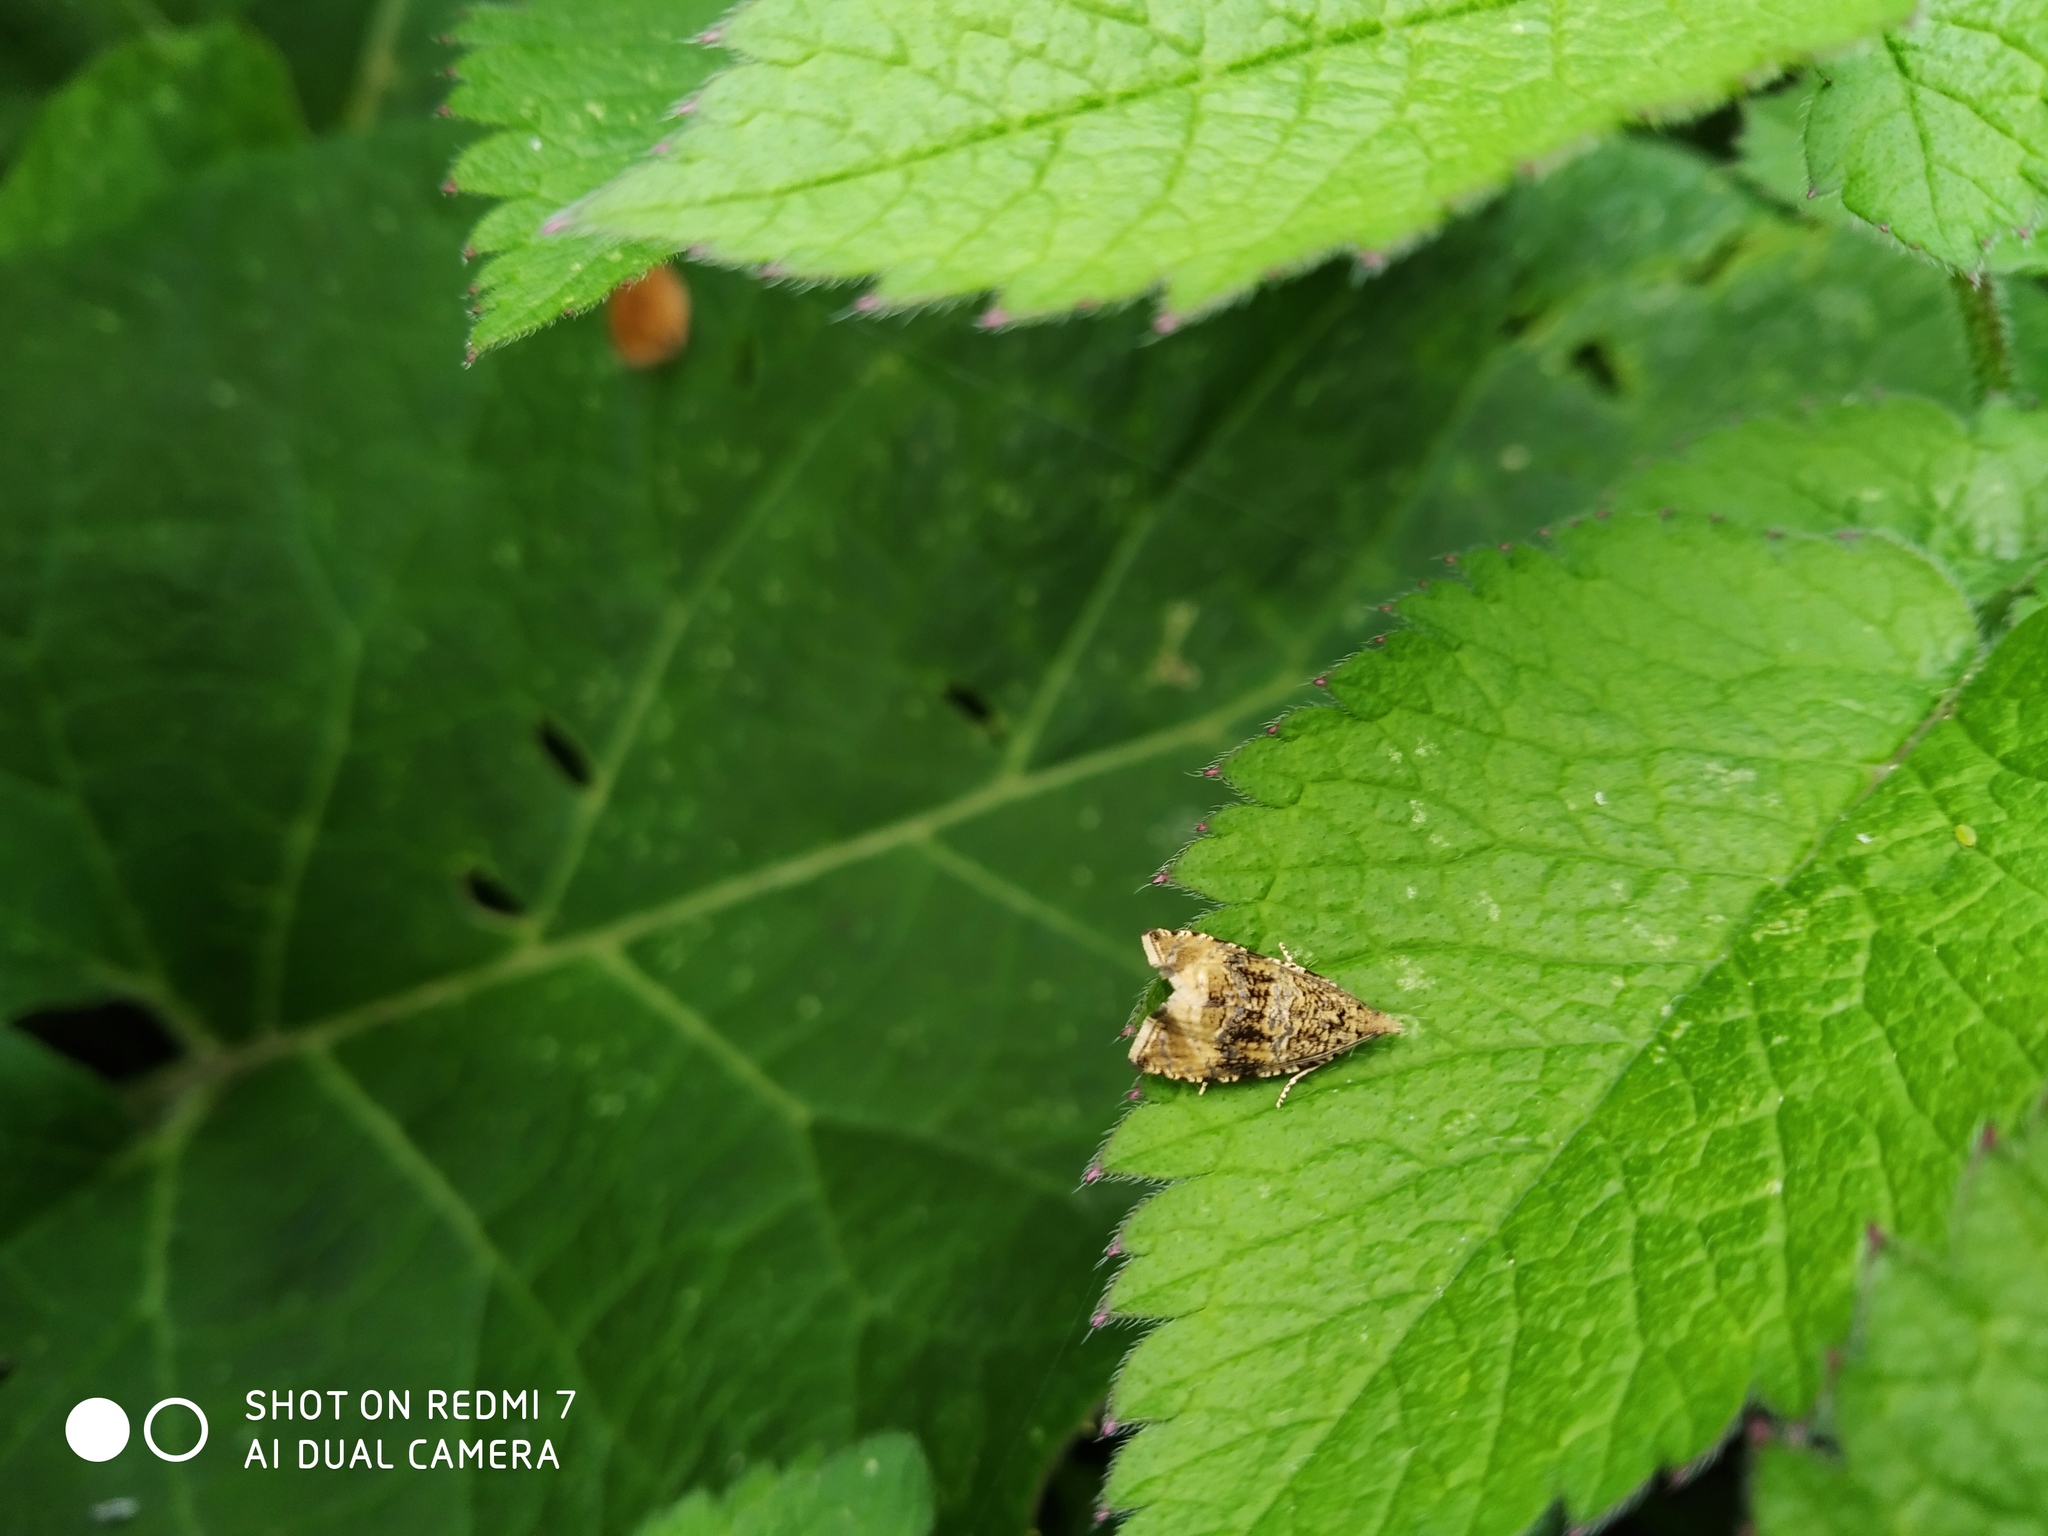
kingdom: Animalia
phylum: Arthropoda
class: Insecta
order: Lepidoptera
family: Tortricidae
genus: Syricoris
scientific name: Syricoris lacunana
